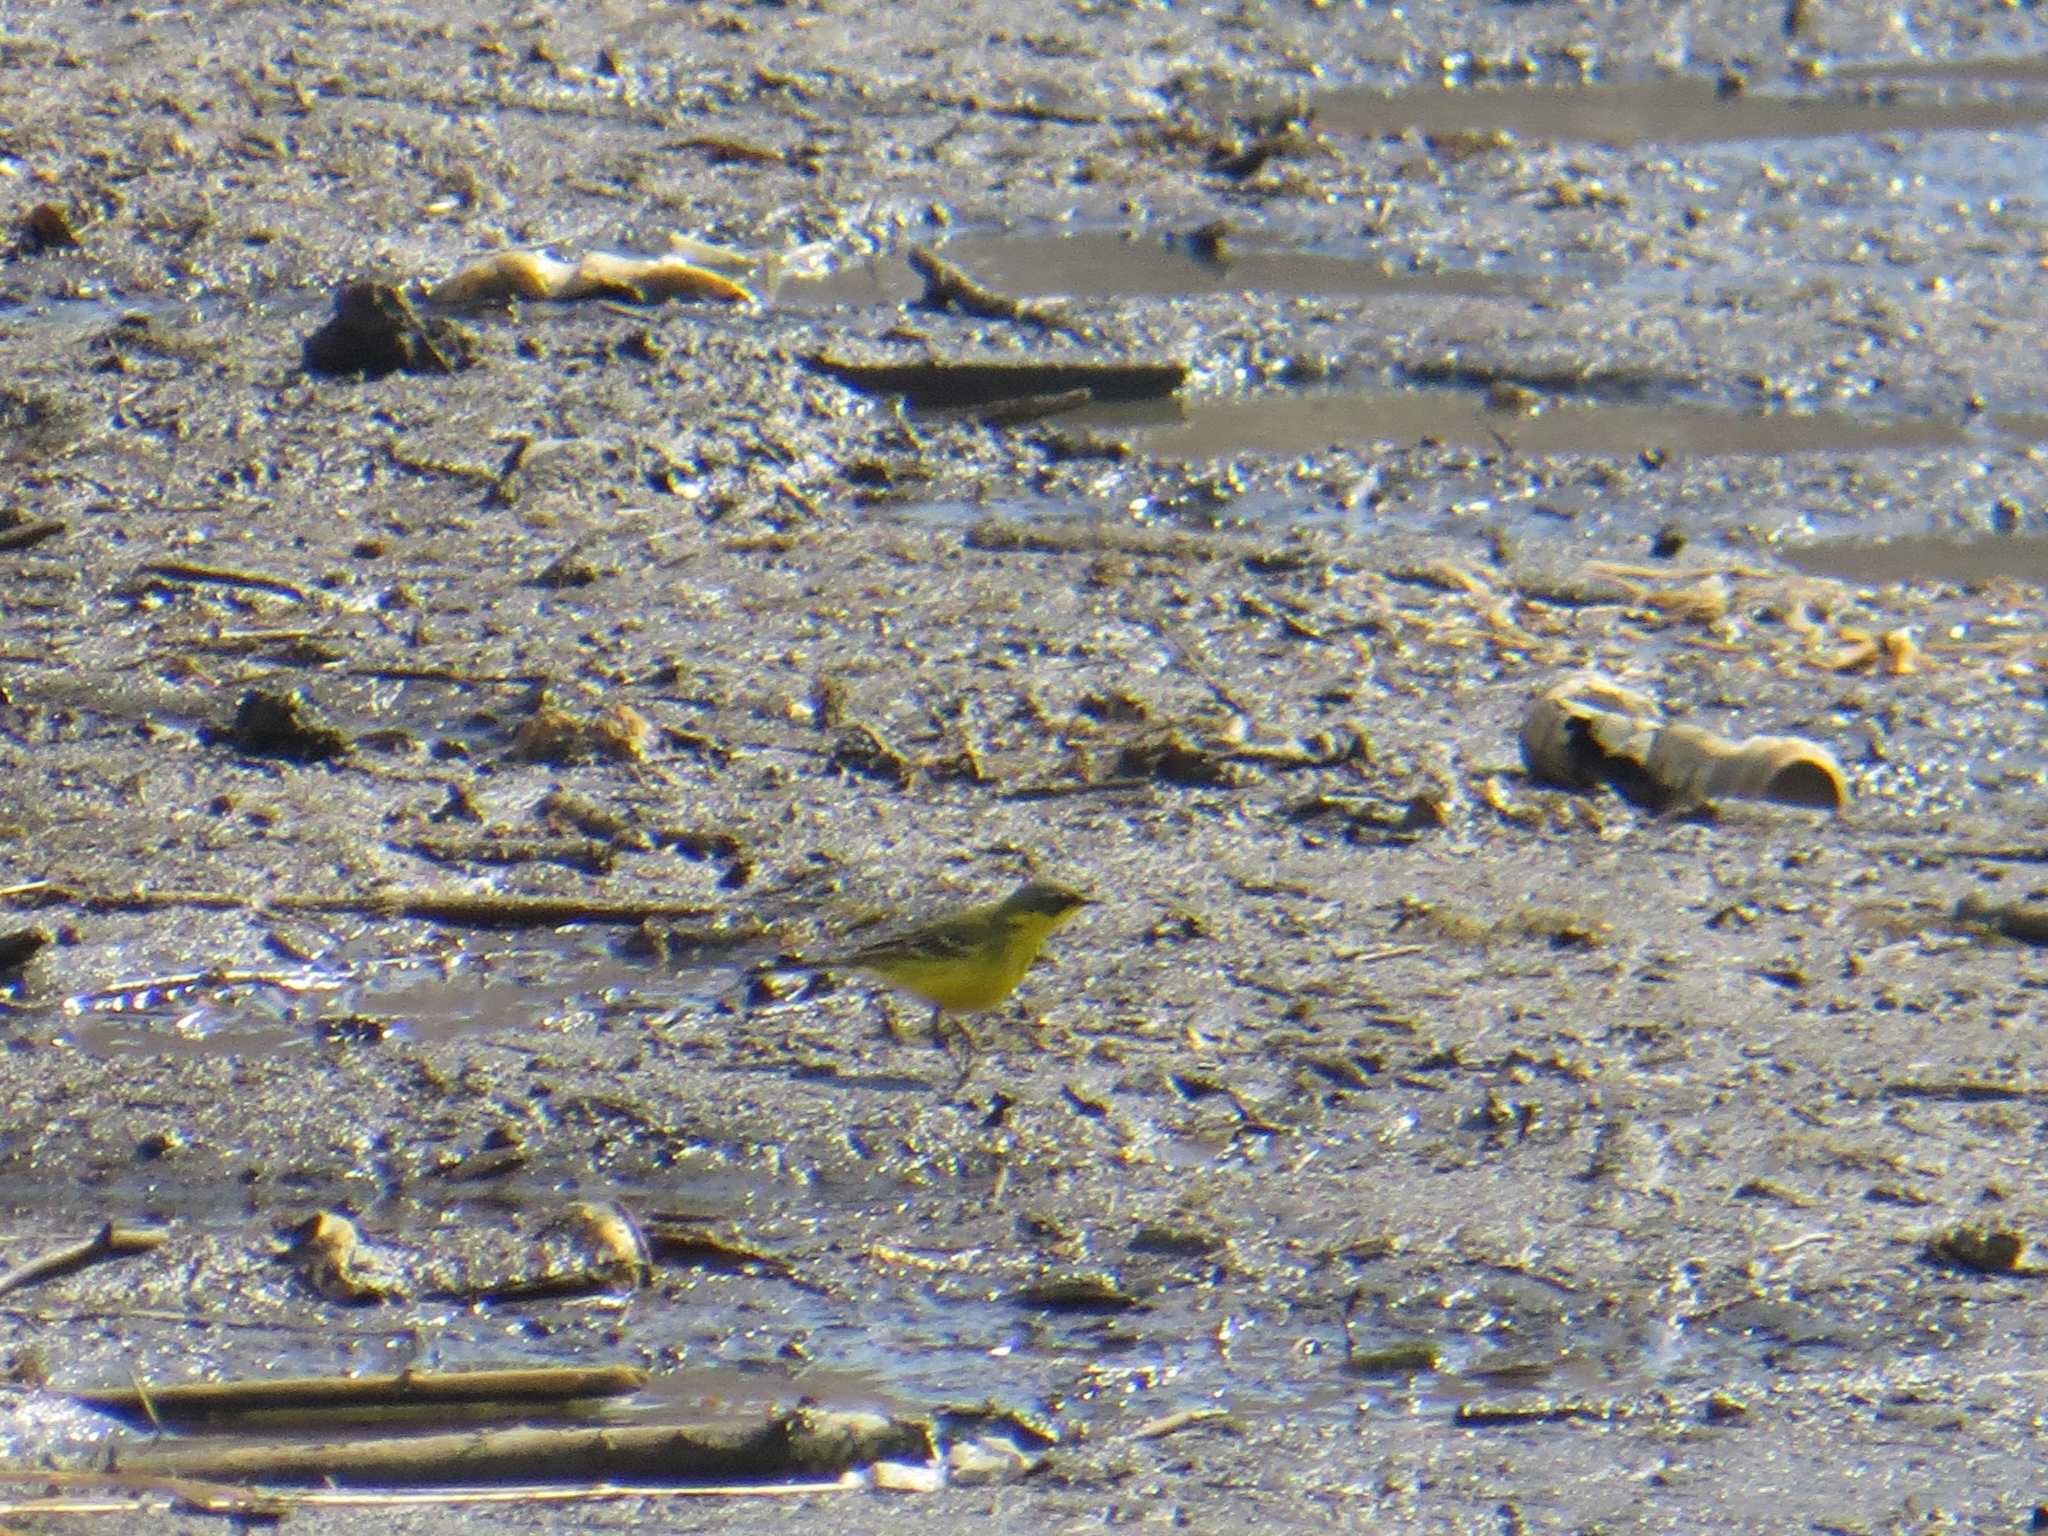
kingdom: Animalia
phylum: Chordata
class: Aves
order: Passeriformes
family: Motacillidae
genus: Motacilla
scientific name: Motacilla tschutschensis
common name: Eastern yellow wagtail
